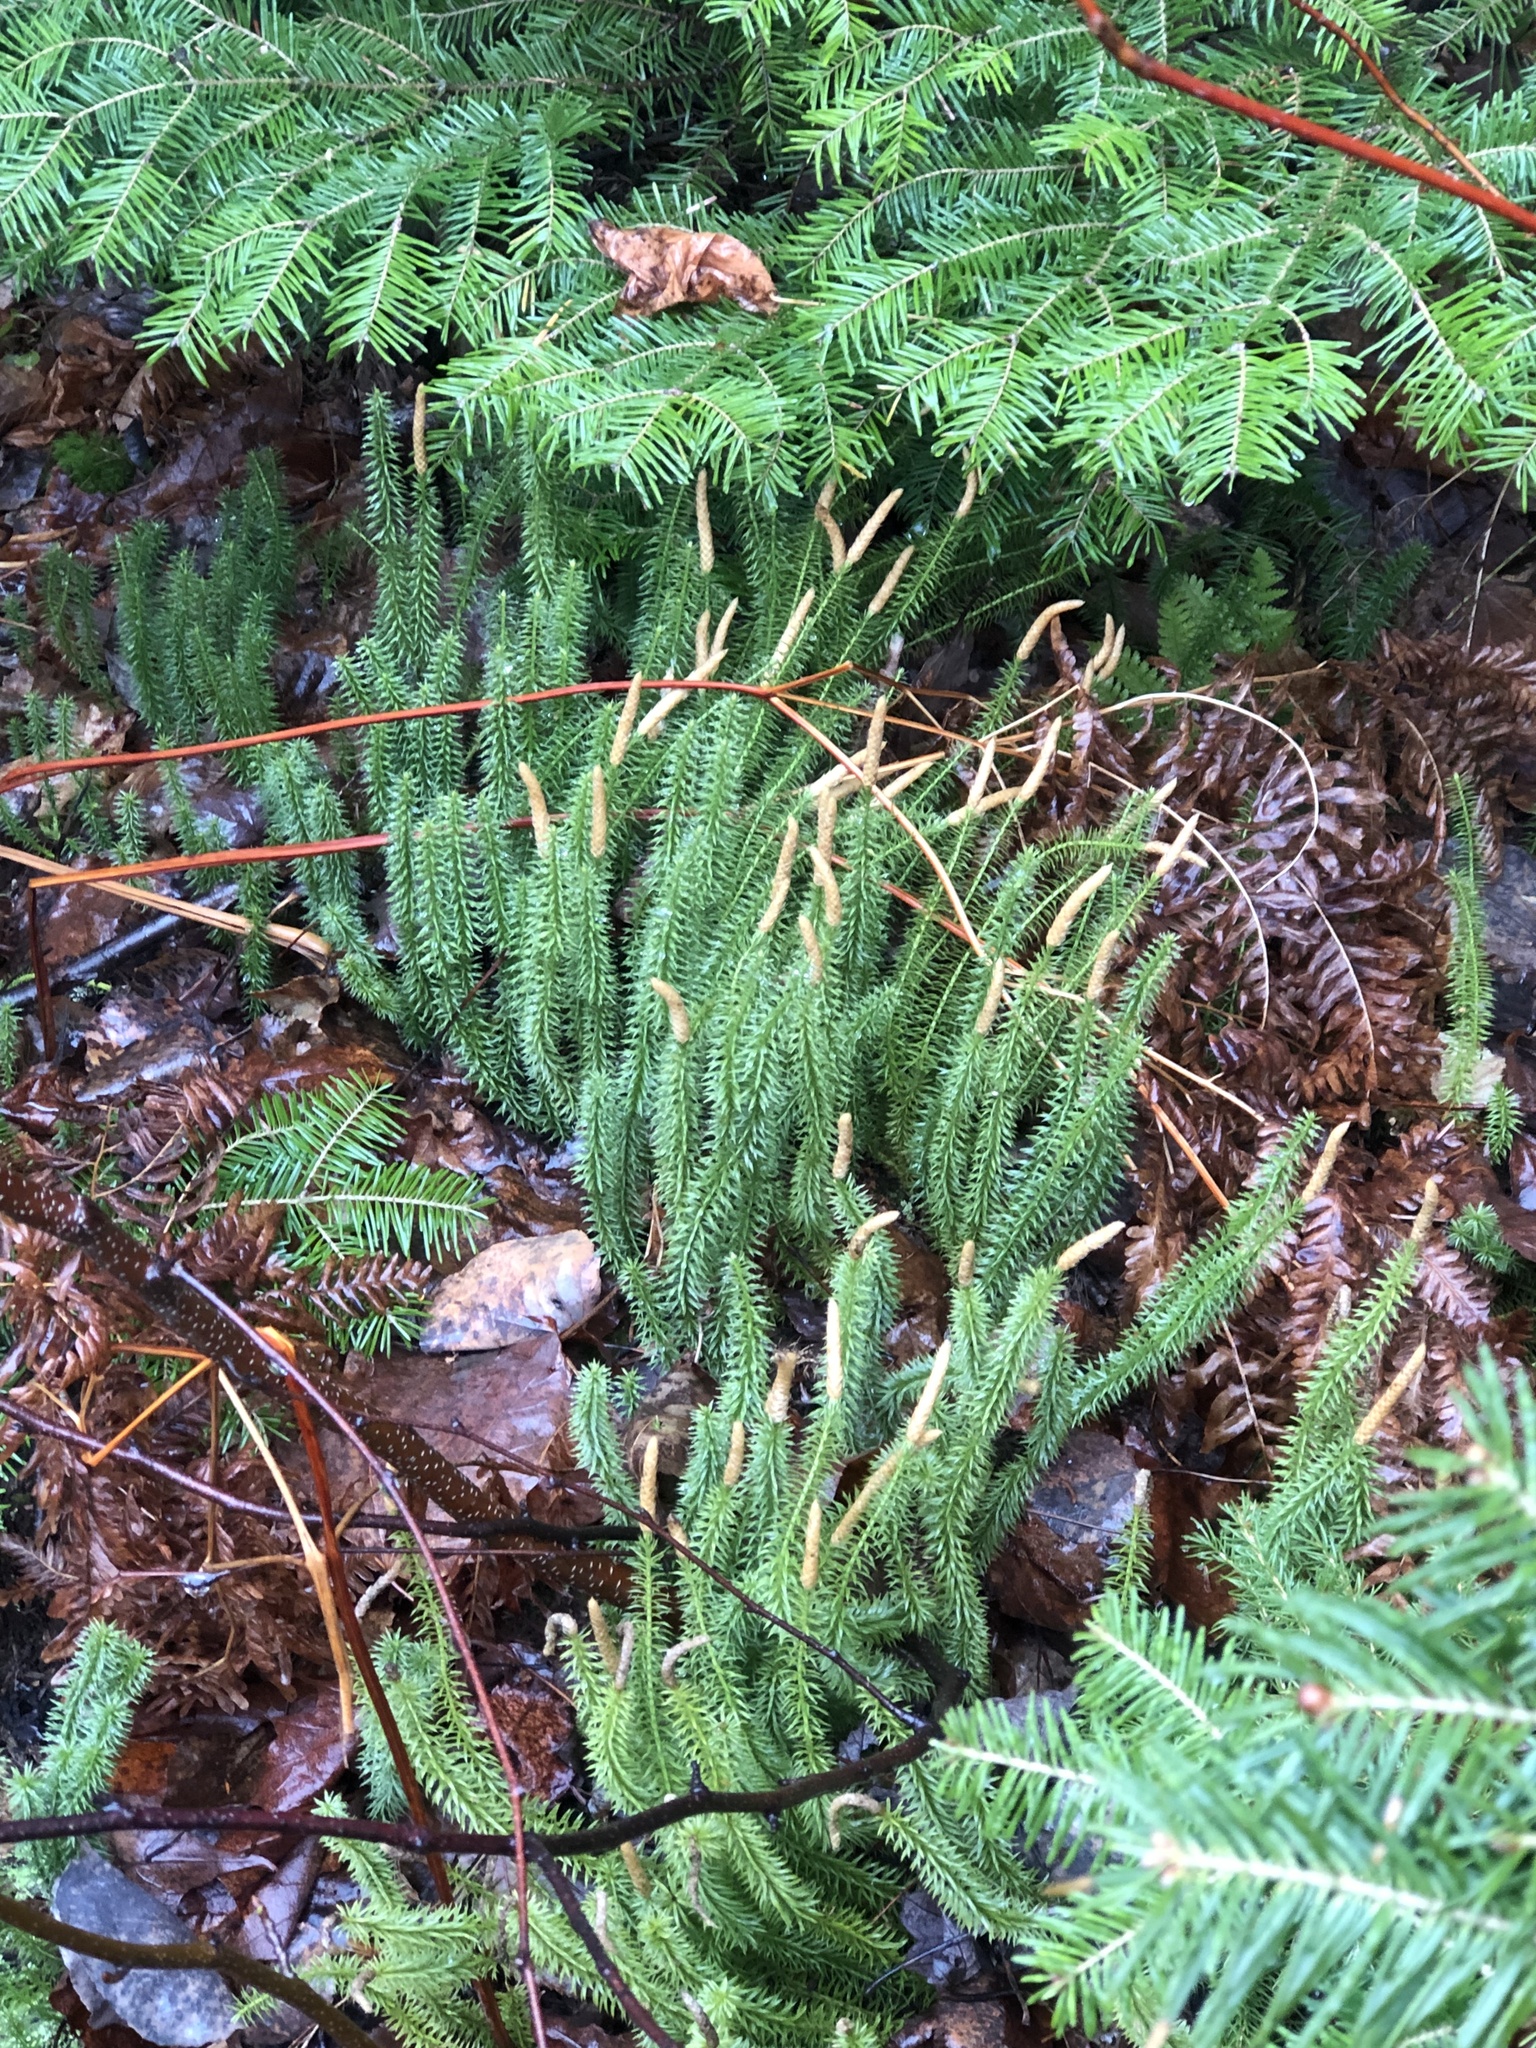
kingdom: Plantae
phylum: Tracheophyta
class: Lycopodiopsida
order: Lycopodiales
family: Lycopodiaceae
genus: Spinulum
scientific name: Spinulum annotinum
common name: Interrupted club-moss
